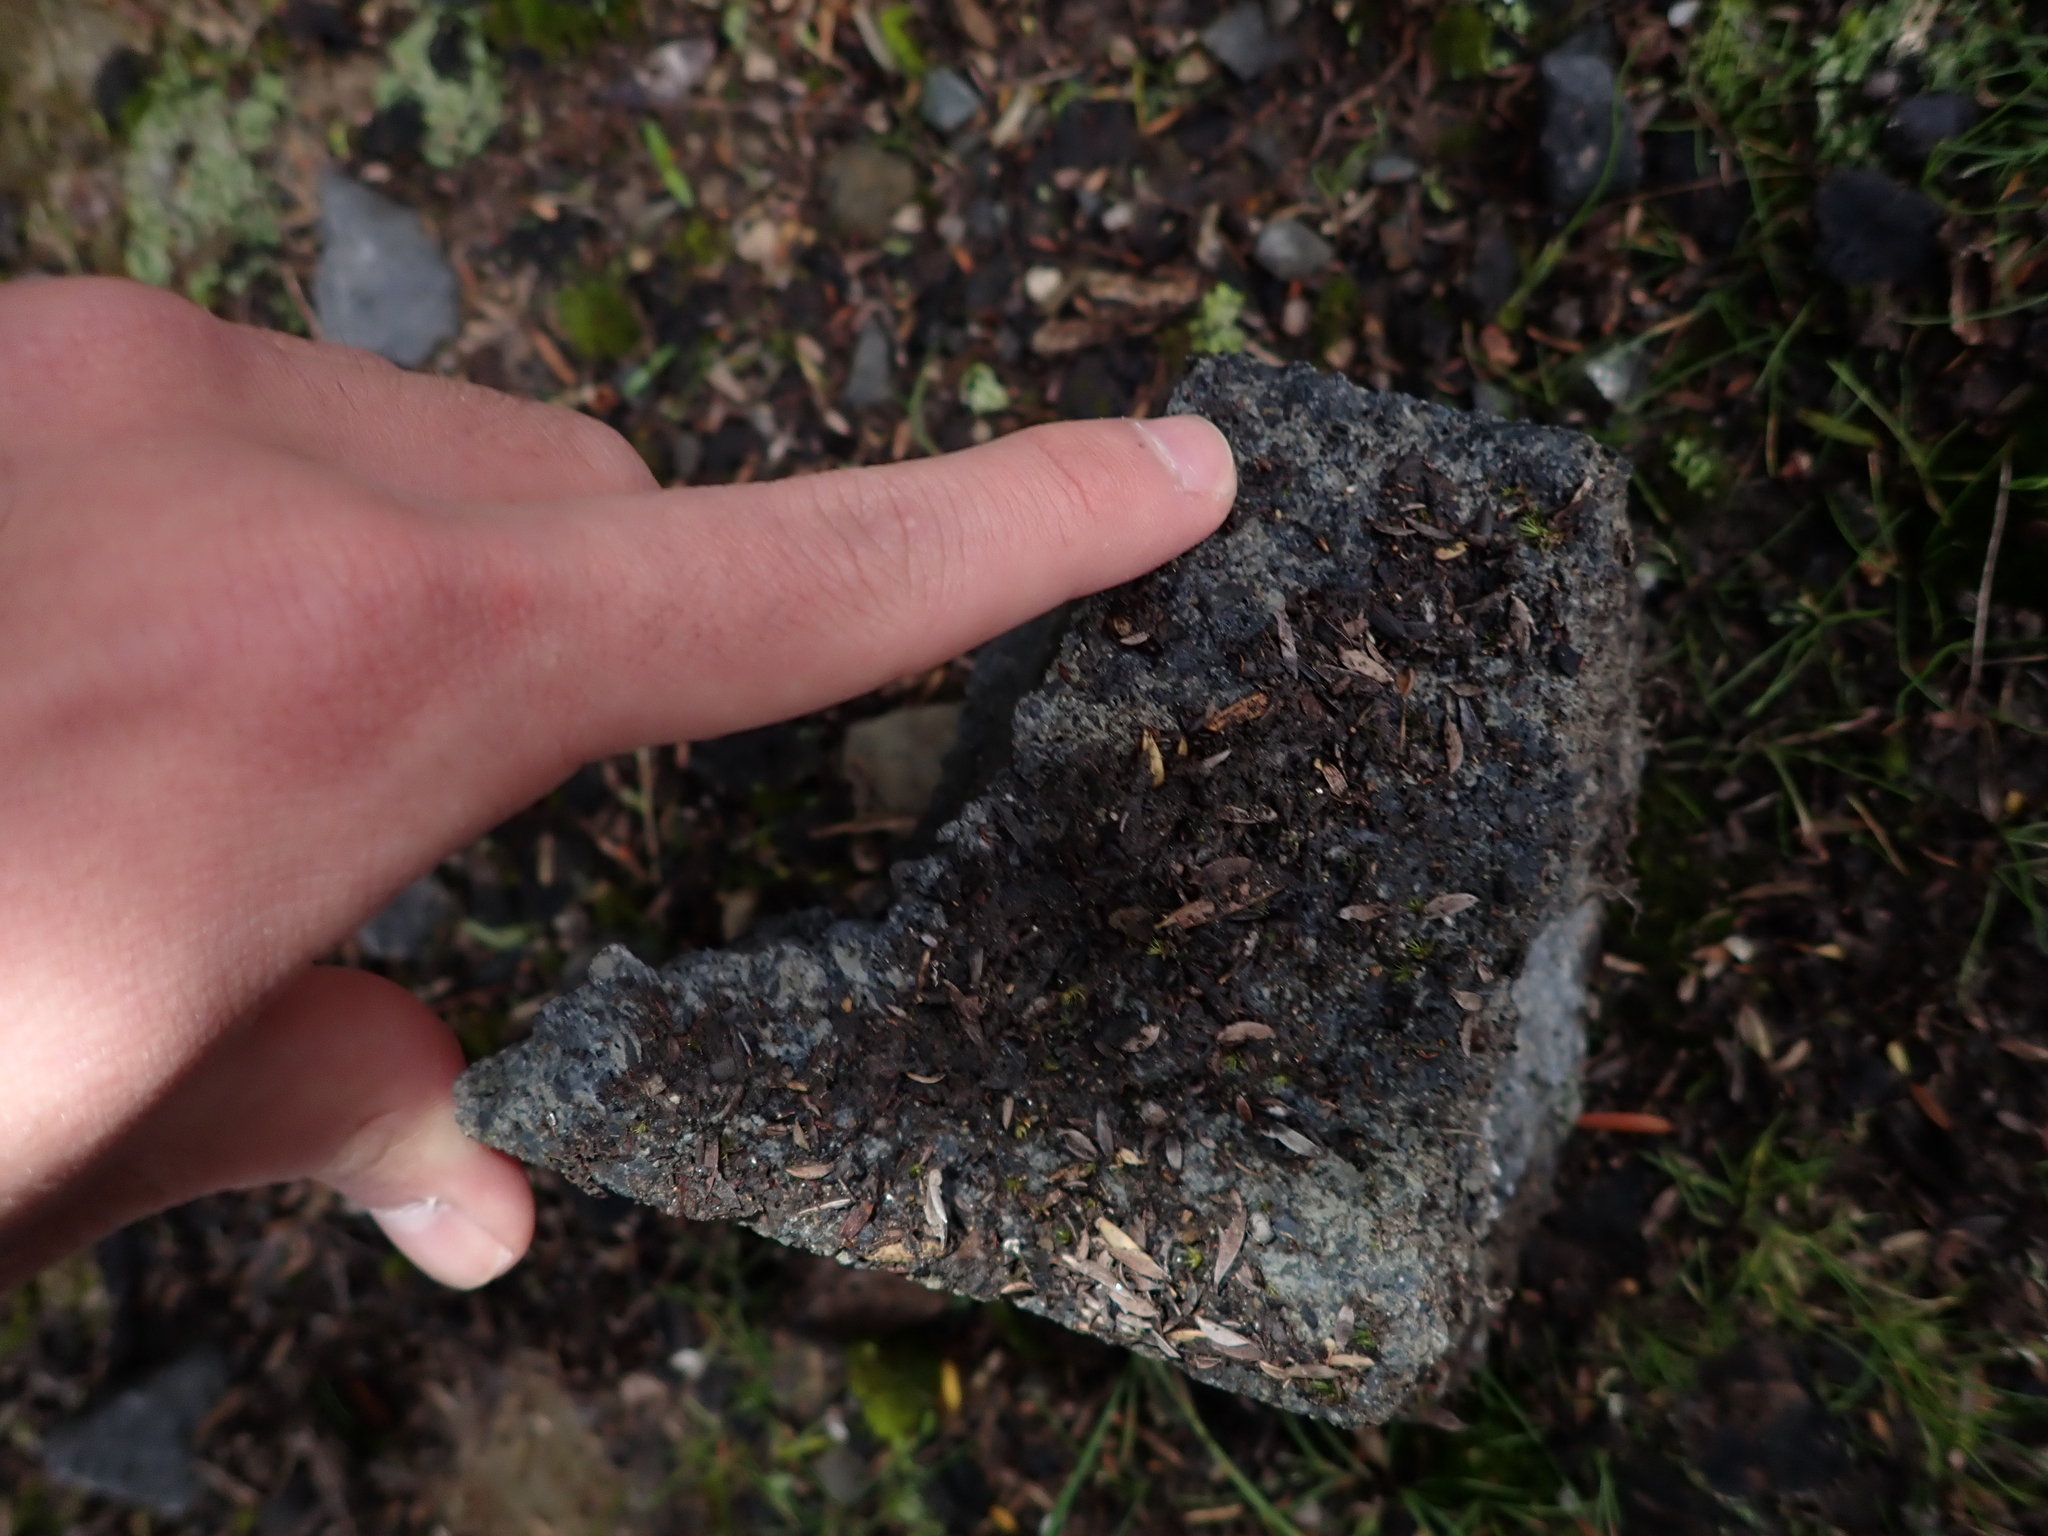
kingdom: Animalia
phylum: Mollusca
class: Gastropoda
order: Stylommatophora
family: Vertiginidae
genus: Vertigo
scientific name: Vertigo ovata
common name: Grassland whorl snail
